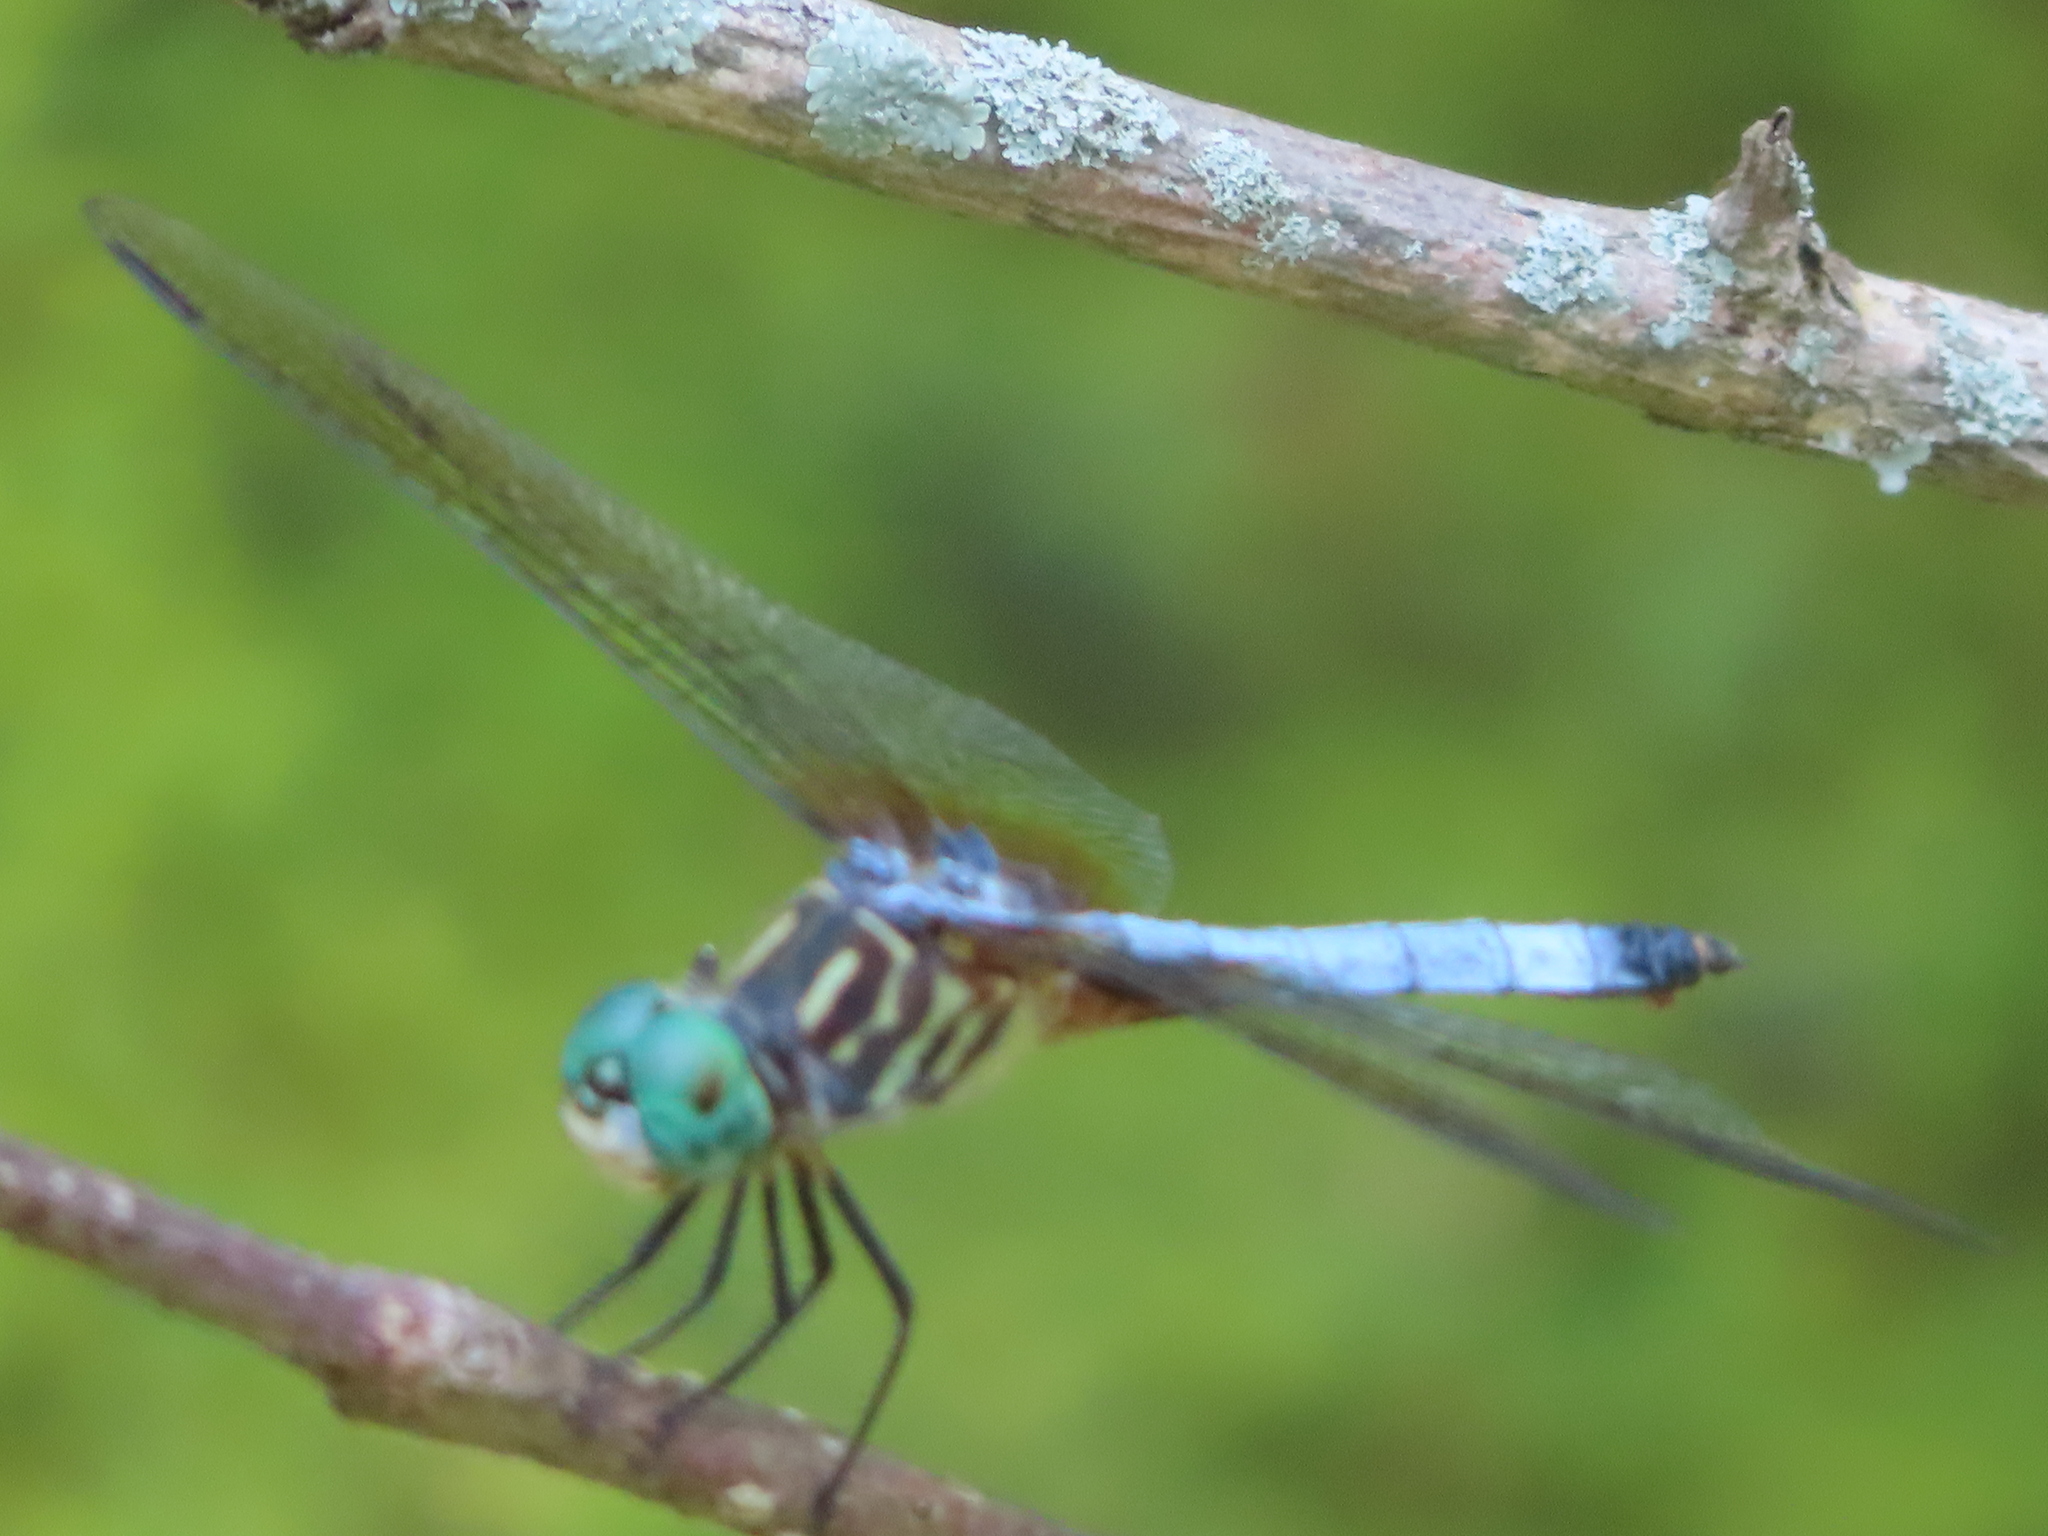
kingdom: Animalia
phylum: Arthropoda
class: Insecta
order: Odonata
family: Libellulidae
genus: Pachydiplax
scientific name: Pachydiplax longipennis
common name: Blue dasher
